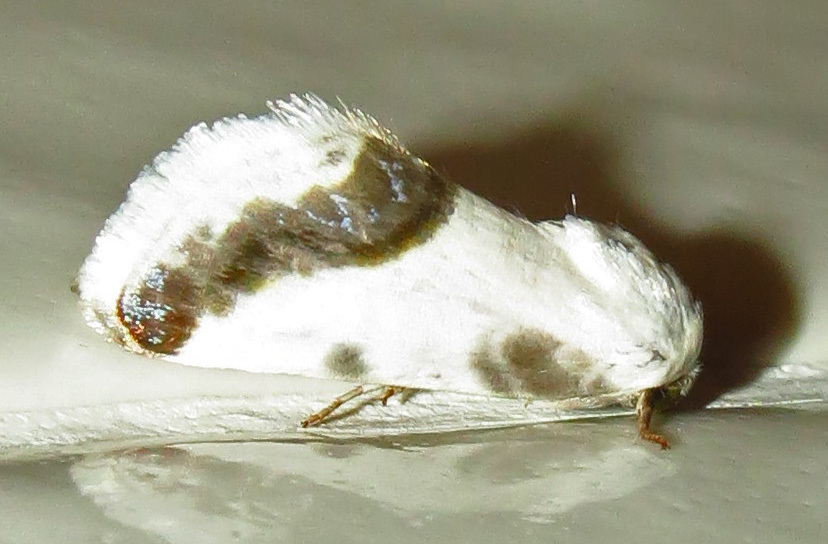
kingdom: Animalia
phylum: Arthropoda
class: Insecta
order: Lepidoptera
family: Noctuidae
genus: Acontia
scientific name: Acontia cretata
